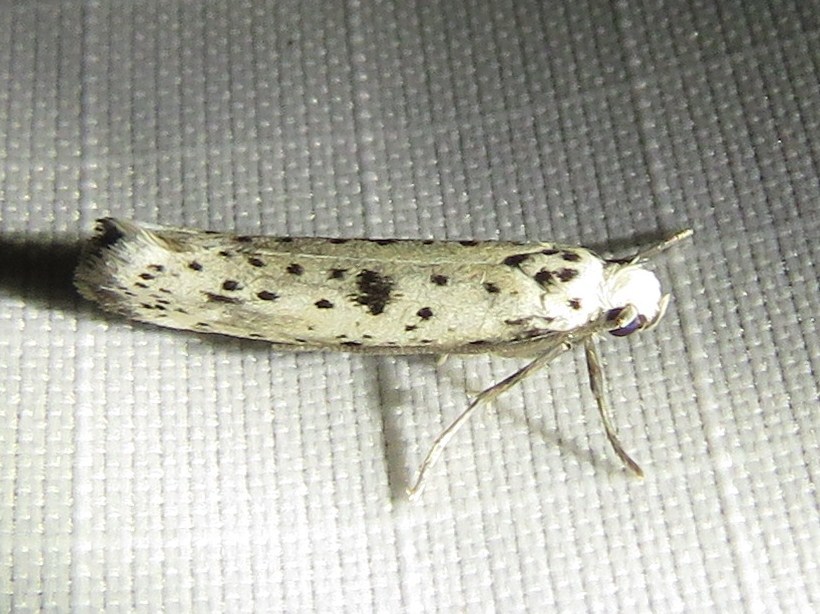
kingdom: Animalia
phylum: Arthropoda
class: Insecta
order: Lepidoptera
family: Yponomeutidae
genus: Yponomeuta
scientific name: Yponomeuta plumbella
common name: Black-tipped ermine
